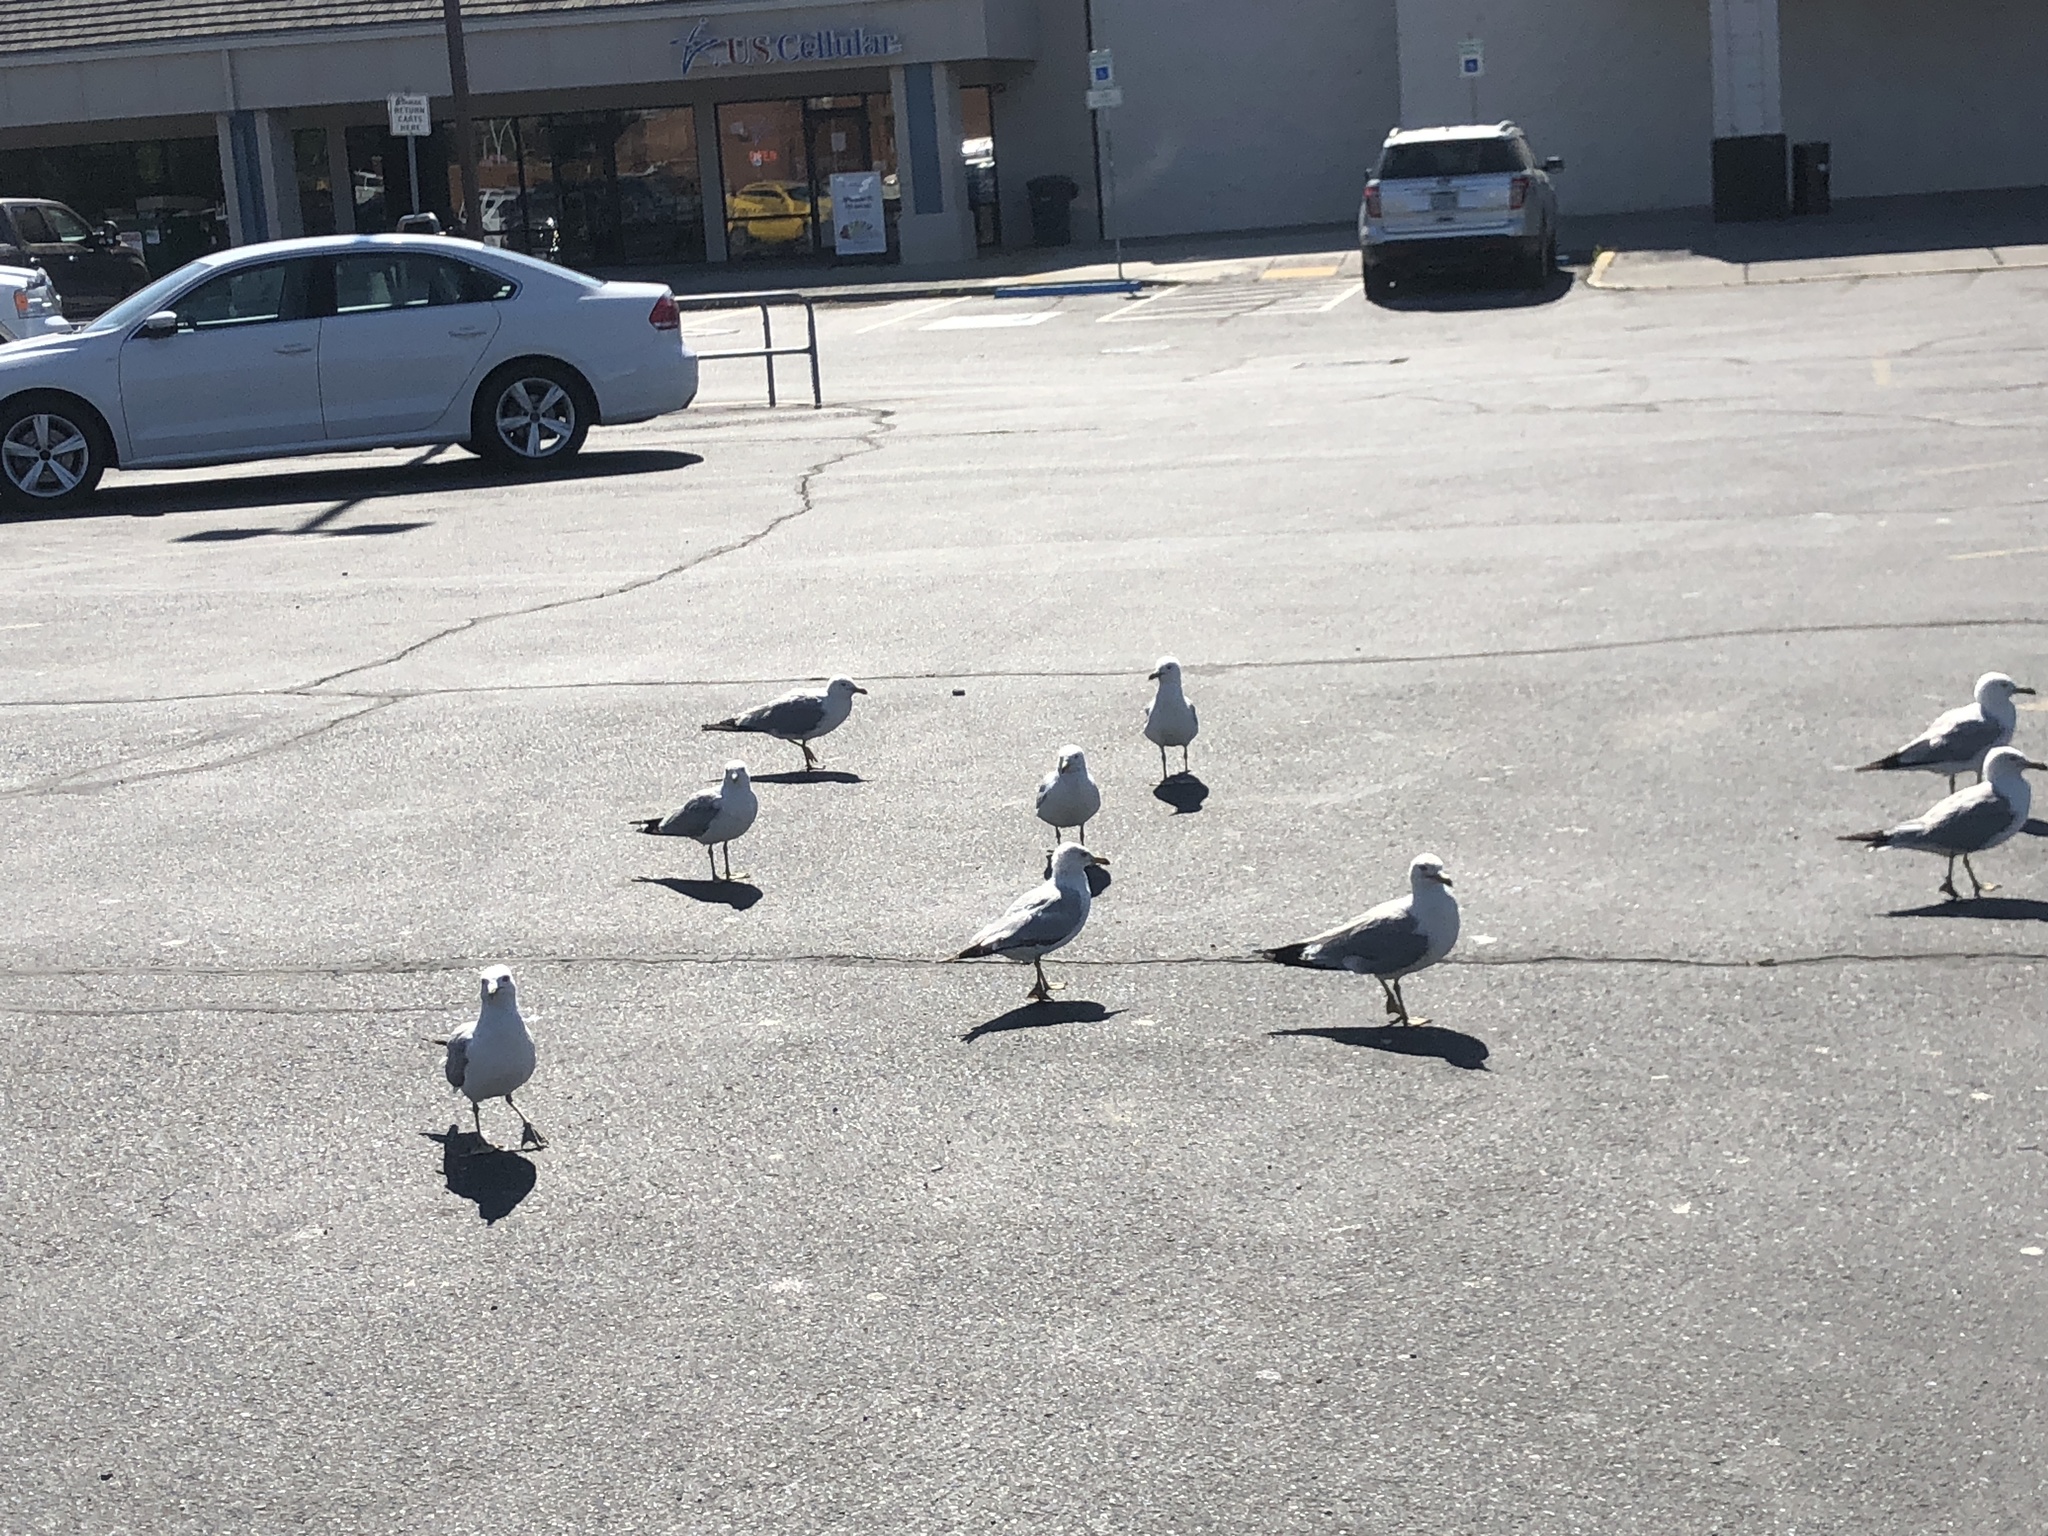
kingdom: Animalia
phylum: Chordata
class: Aves
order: Charadriiformes
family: Laridae
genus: Larus
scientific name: Larus delawarensis
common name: Ring-billed gull
